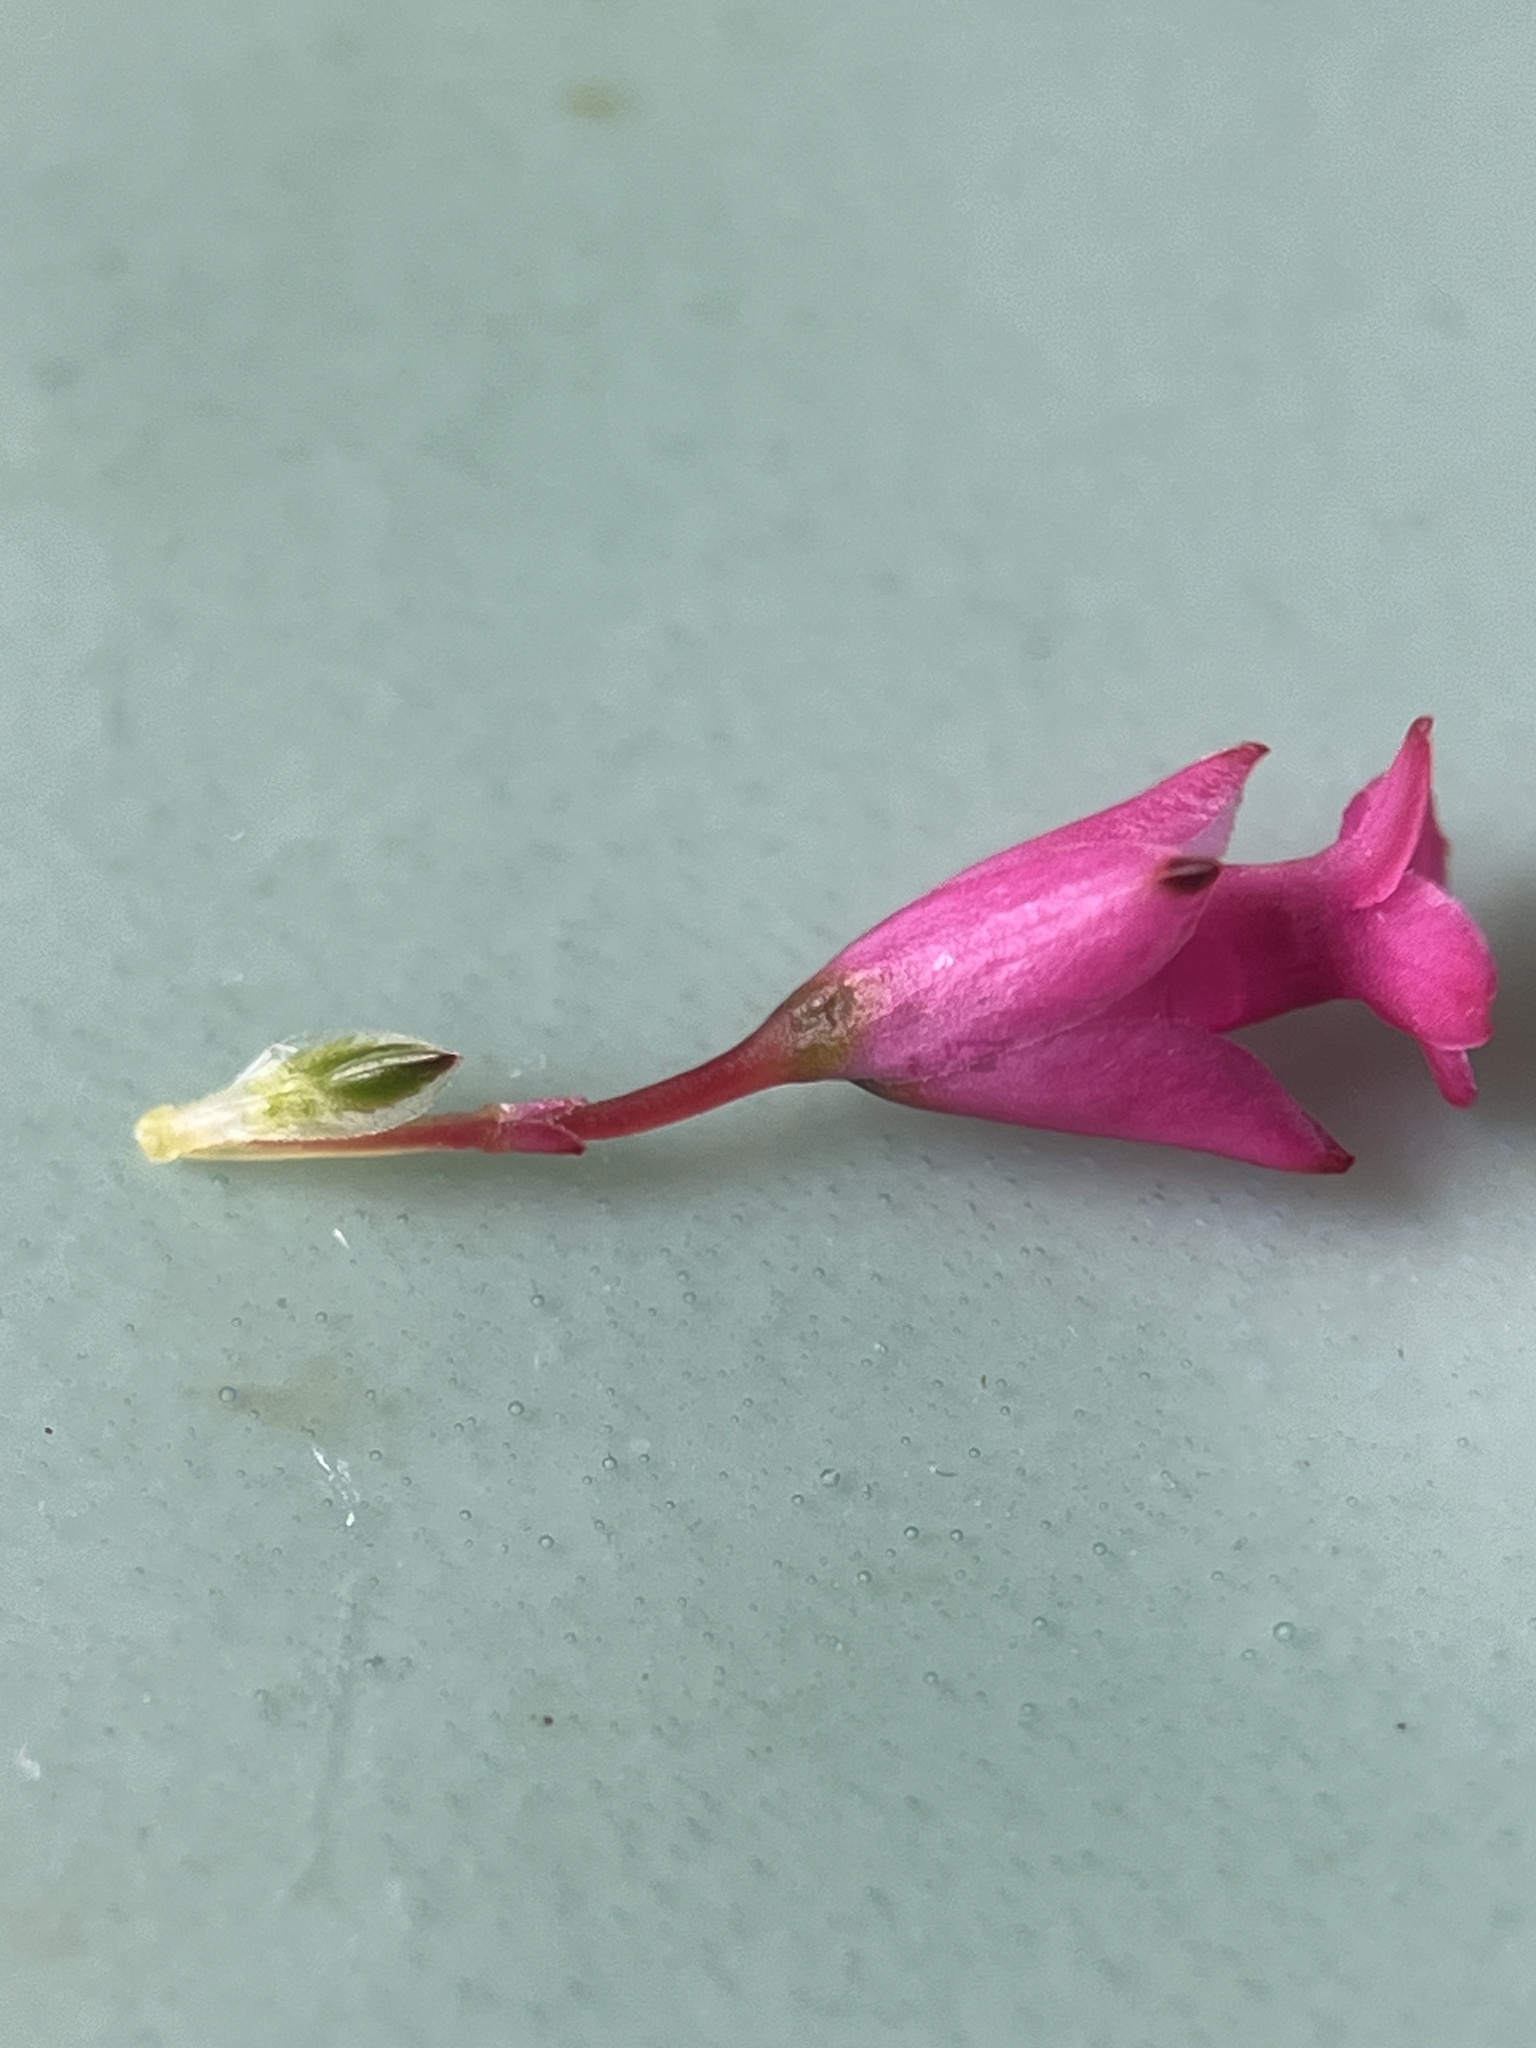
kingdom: Plantae
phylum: Tracheophyta
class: Magnoliopsida
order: Ericales
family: Ericaceae
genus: Erica
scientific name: Erica vogelpoelii
